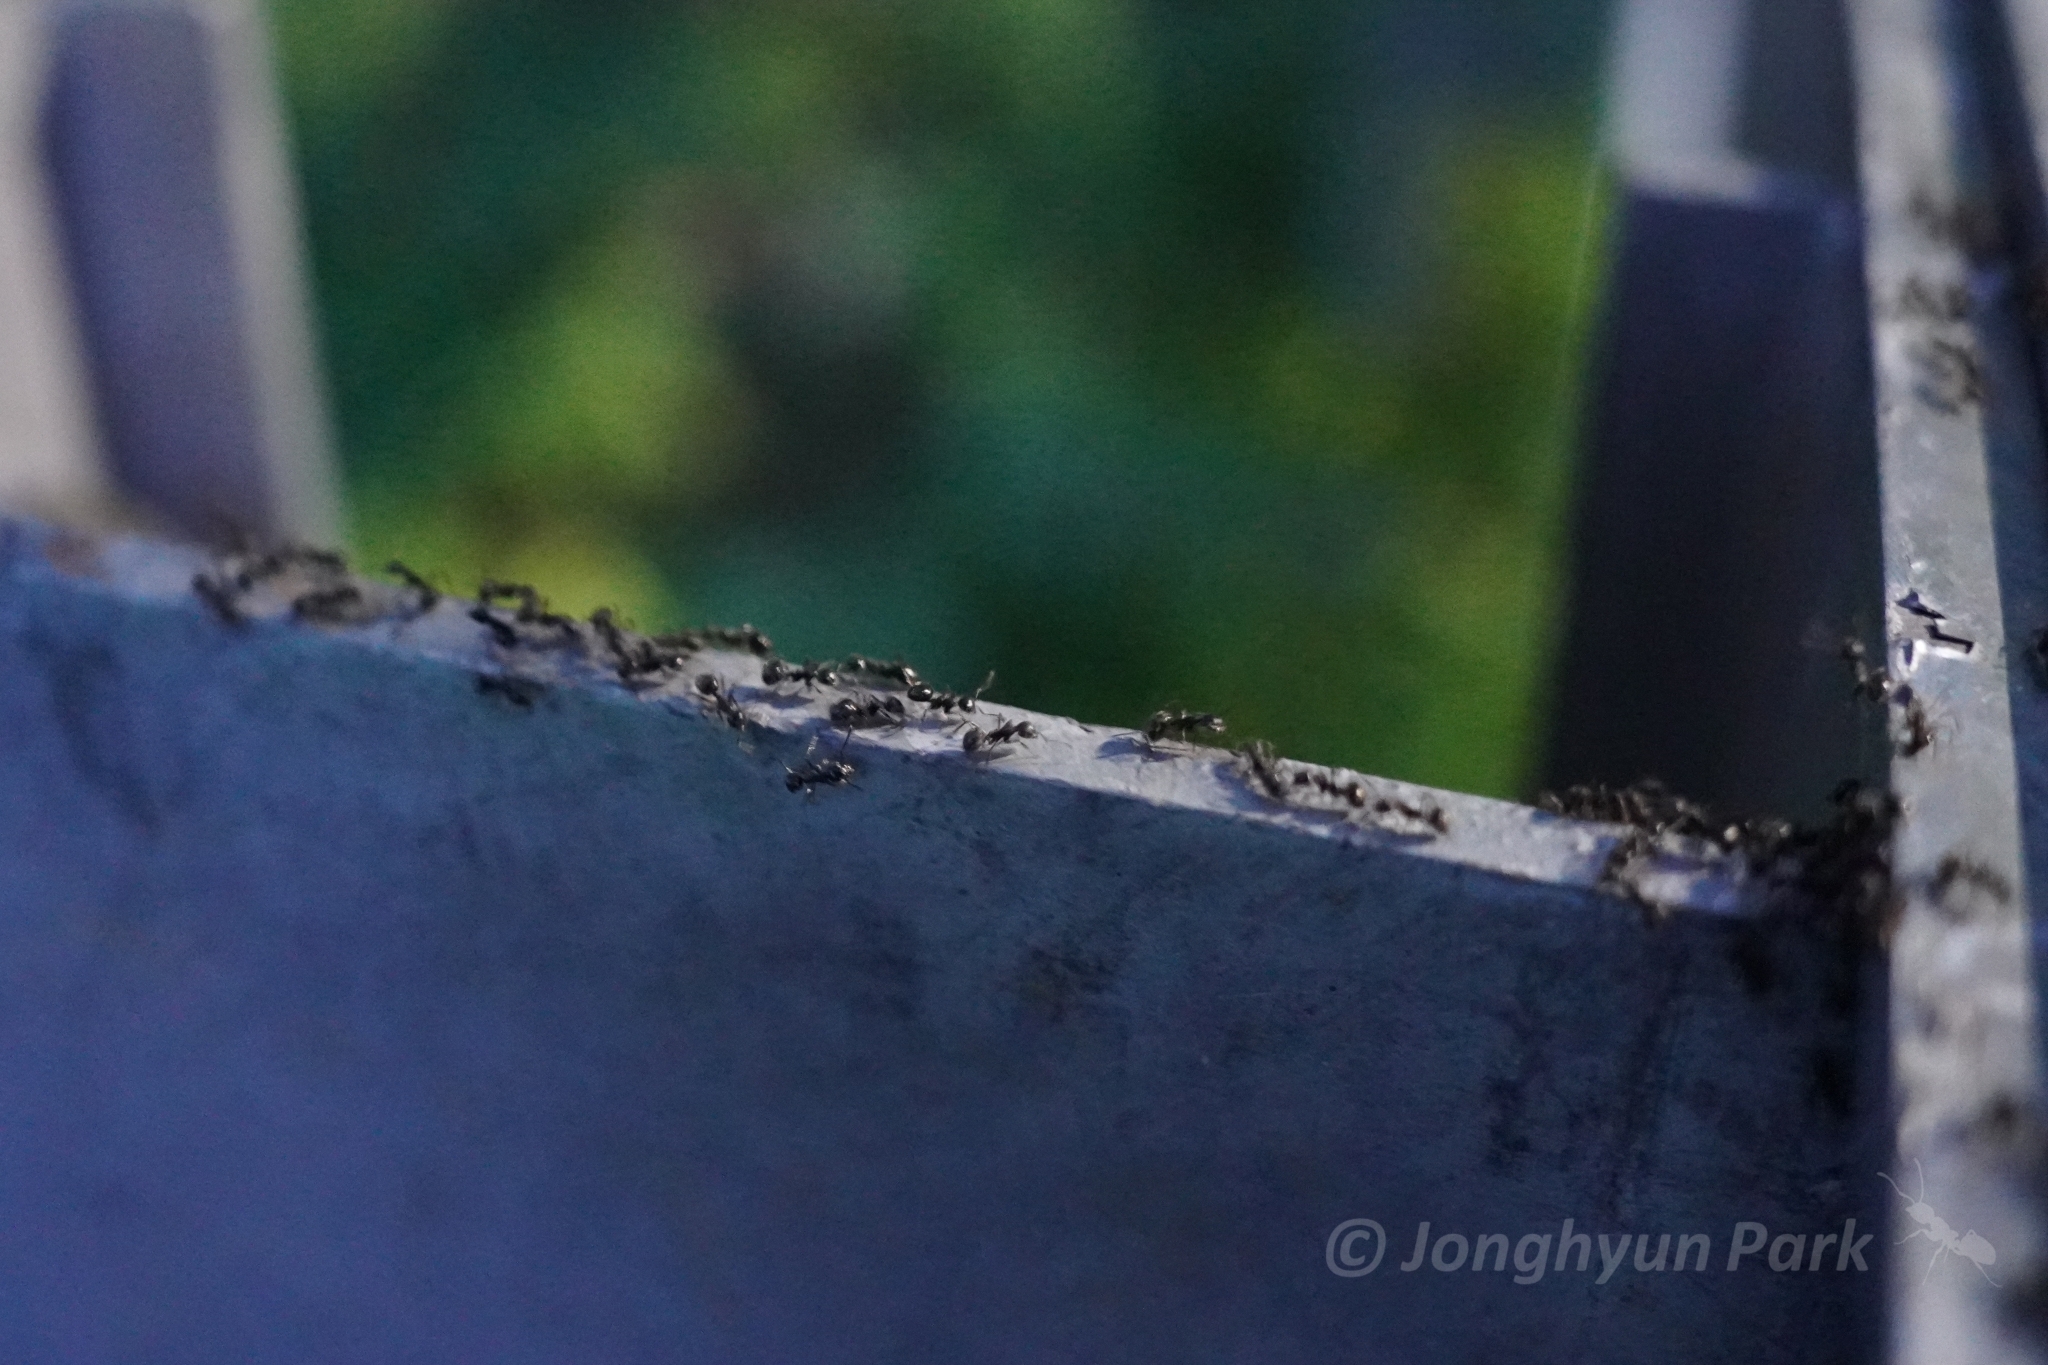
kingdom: Animalia
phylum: Arthropoda
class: Insecta
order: Hymenoptera
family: Formicidae
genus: Dolichoderus
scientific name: Dolichoderus thoracicus
